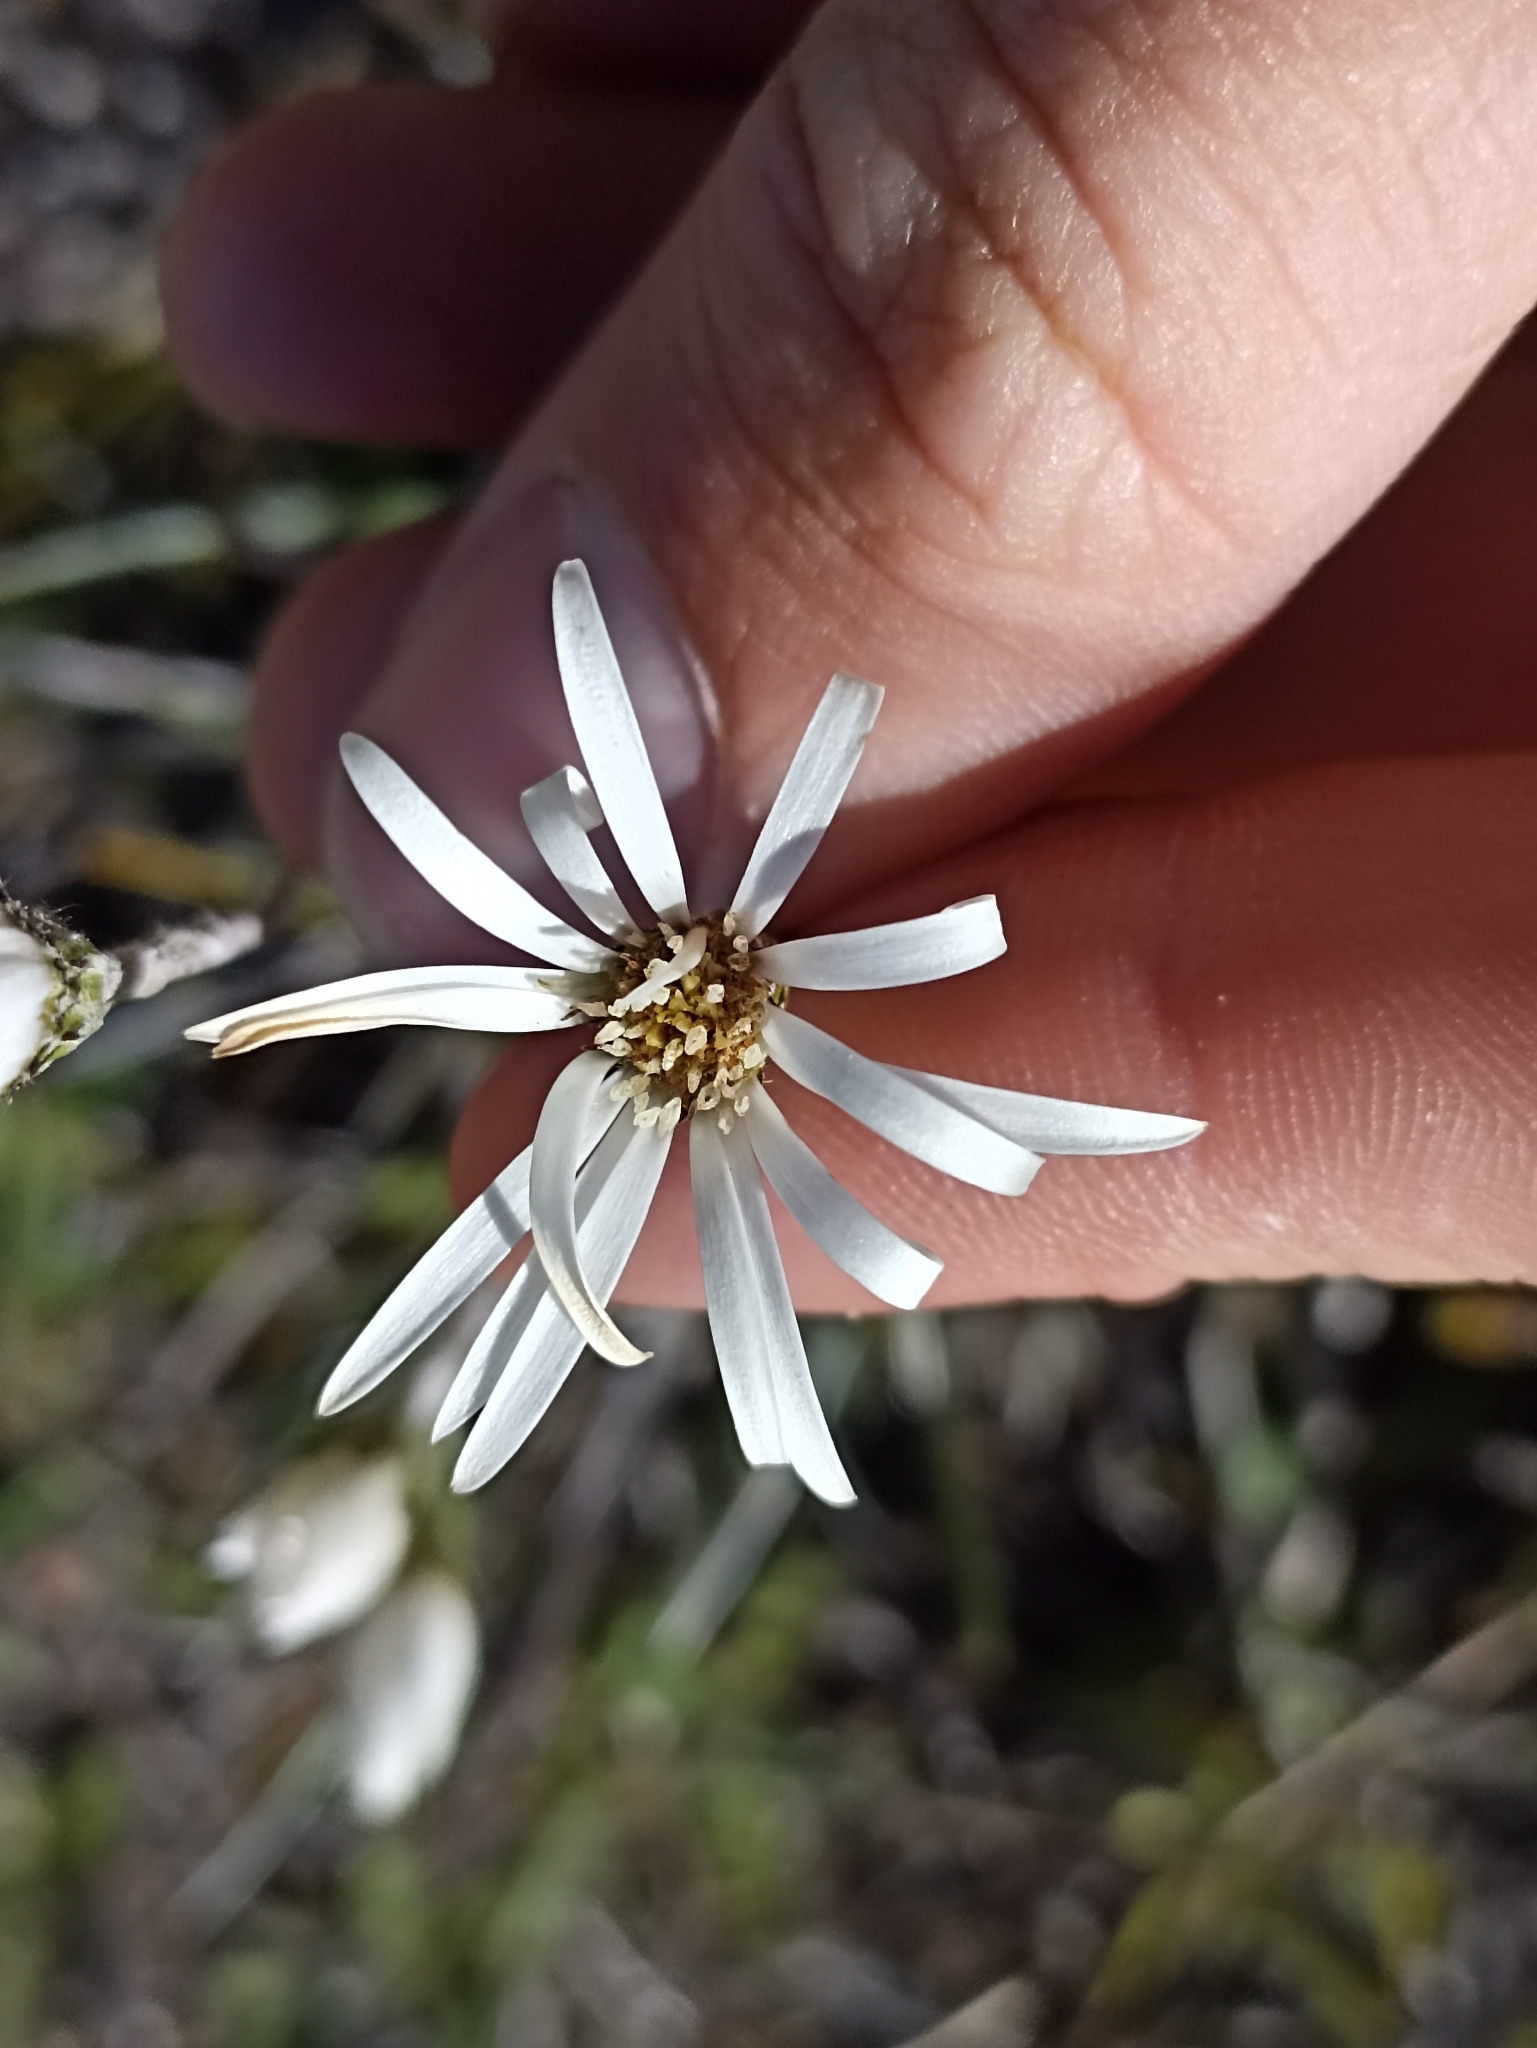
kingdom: Plantae
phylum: Tracheophyta
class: Magnoliopsida
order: Asterales
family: Asteraceae
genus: Celmisia
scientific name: Celmisia gracilenta
